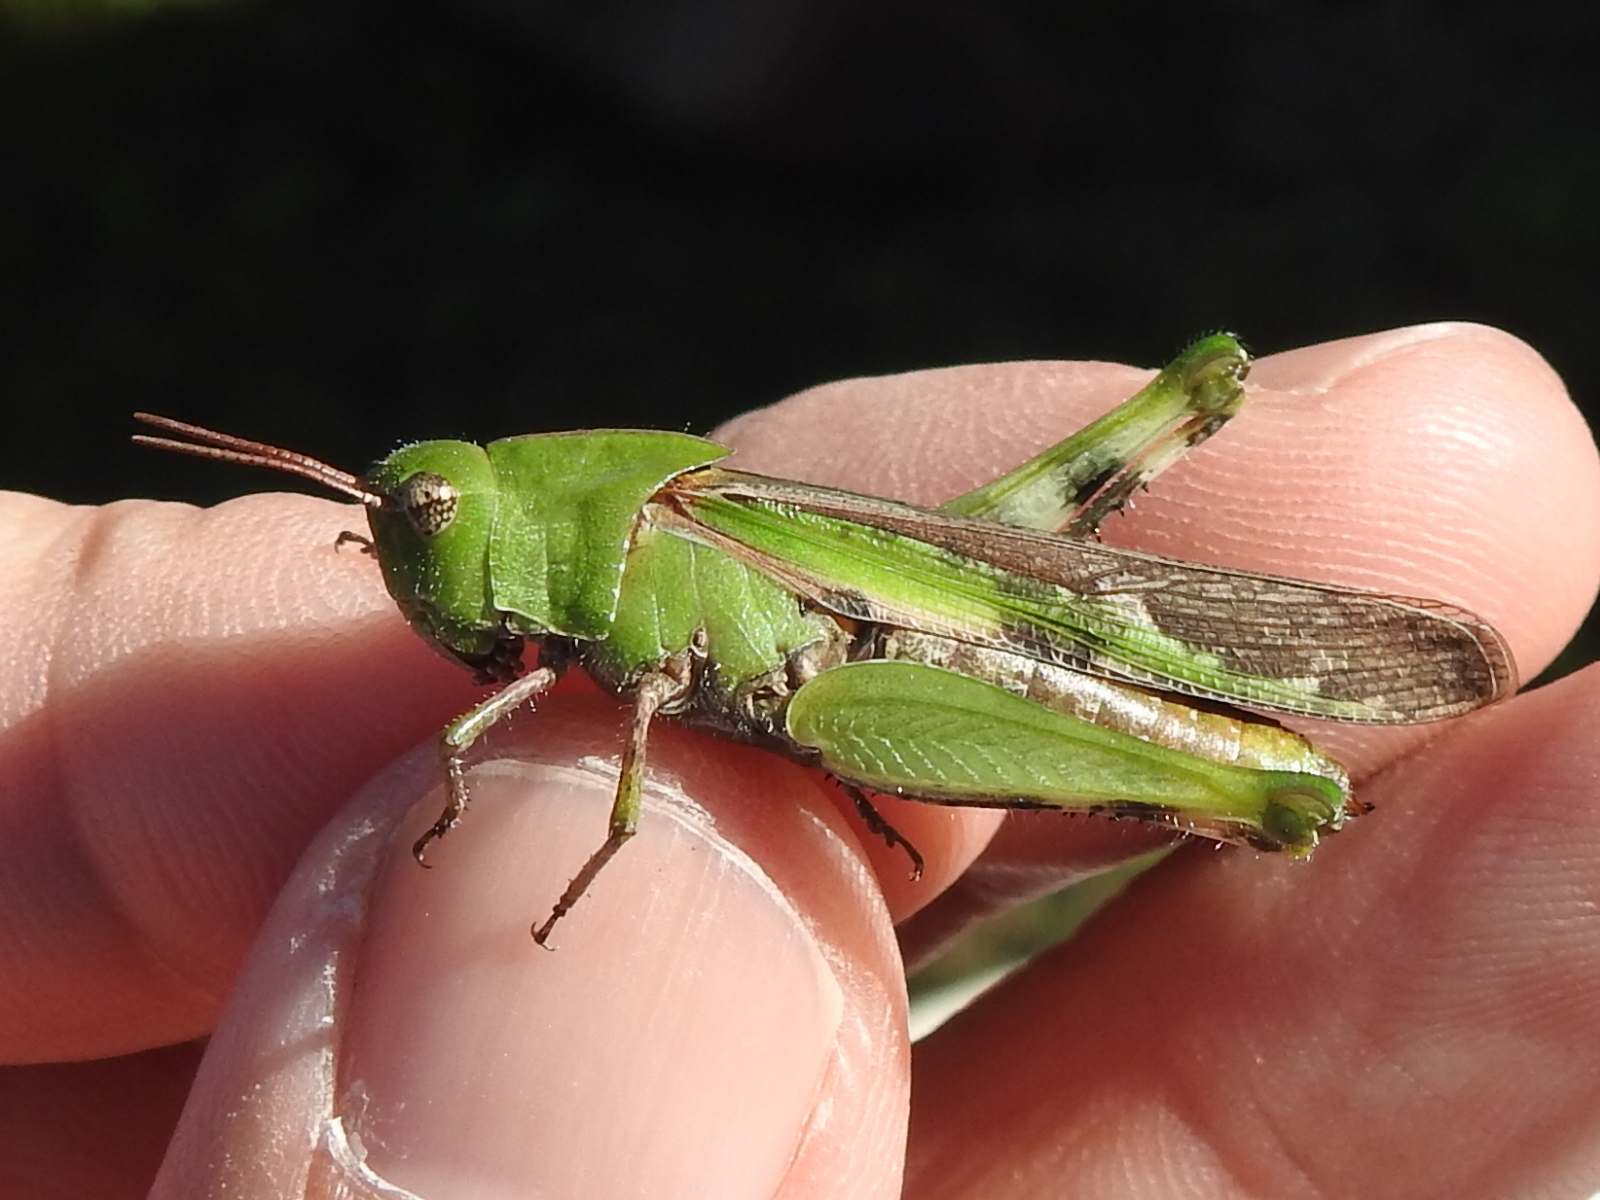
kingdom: Animalia
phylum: Arthropoda
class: Insecta
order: Orthoptera
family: Acrididae
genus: Chortophaga
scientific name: Chortophaga viridifasciata
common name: Green-striped grasshopper
